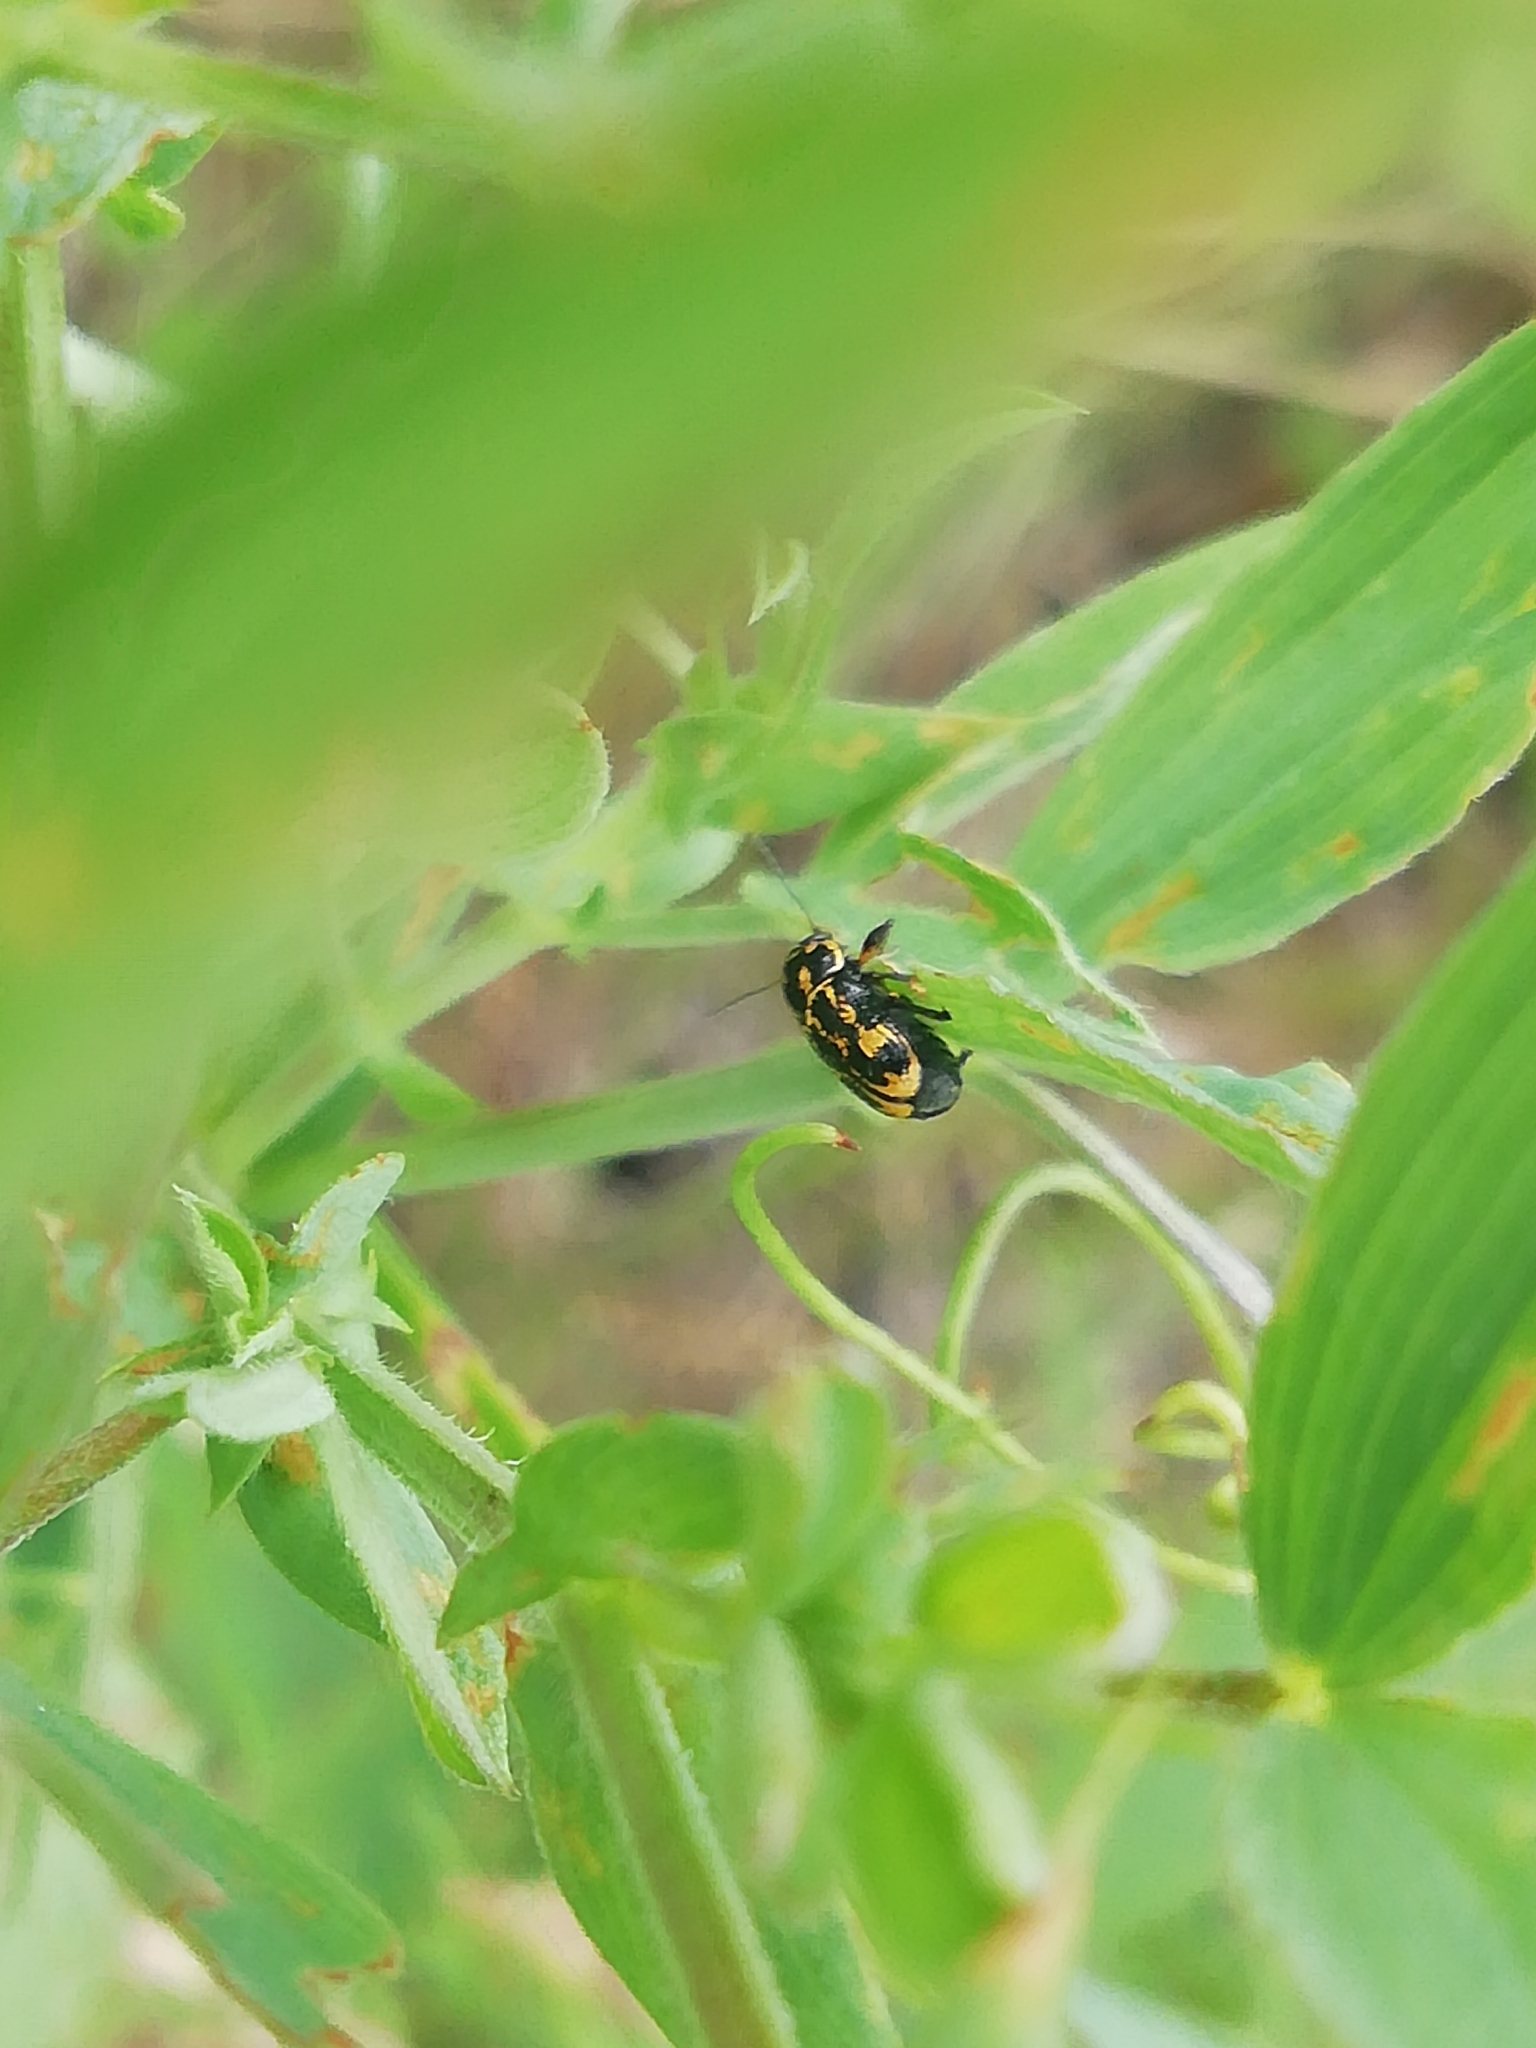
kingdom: Animalia
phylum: Arthropoda
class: Insecta
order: Coleoptera
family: Chrysomelidae
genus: Pachybrachis
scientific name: Pachybrachis hieroglyphicus
